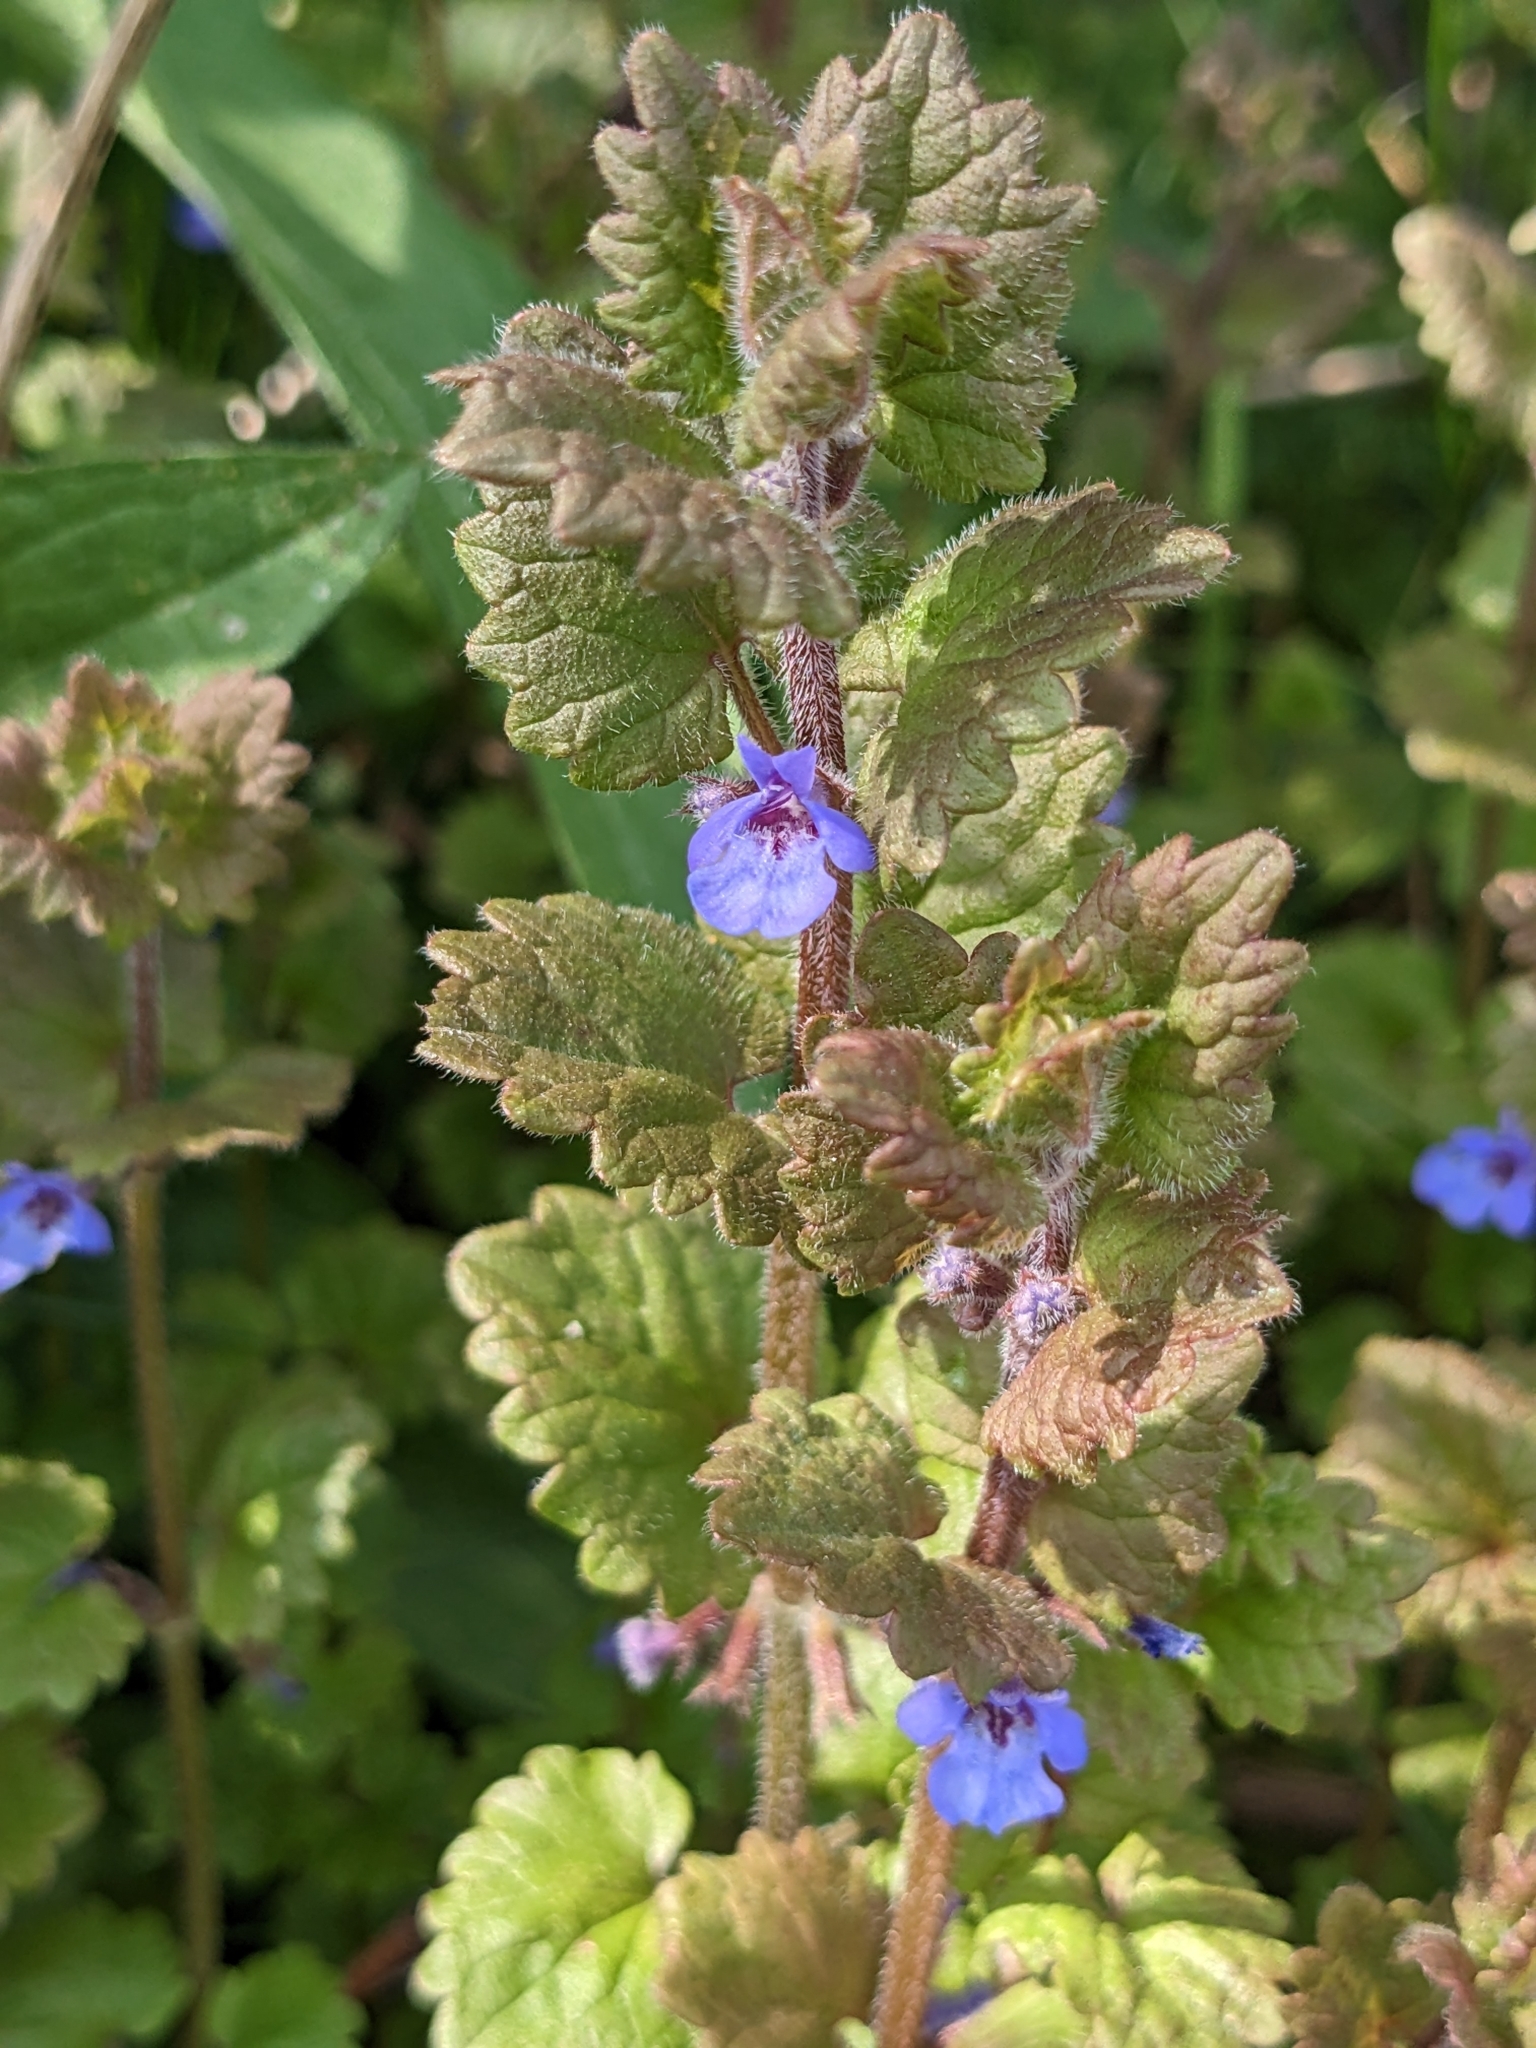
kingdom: Plantae
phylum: Tracheophyta
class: Magnoliopsida
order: Lamiales
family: Lamiaceae
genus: Glechoma
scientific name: Glechoma hederacea
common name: Ground ivy
